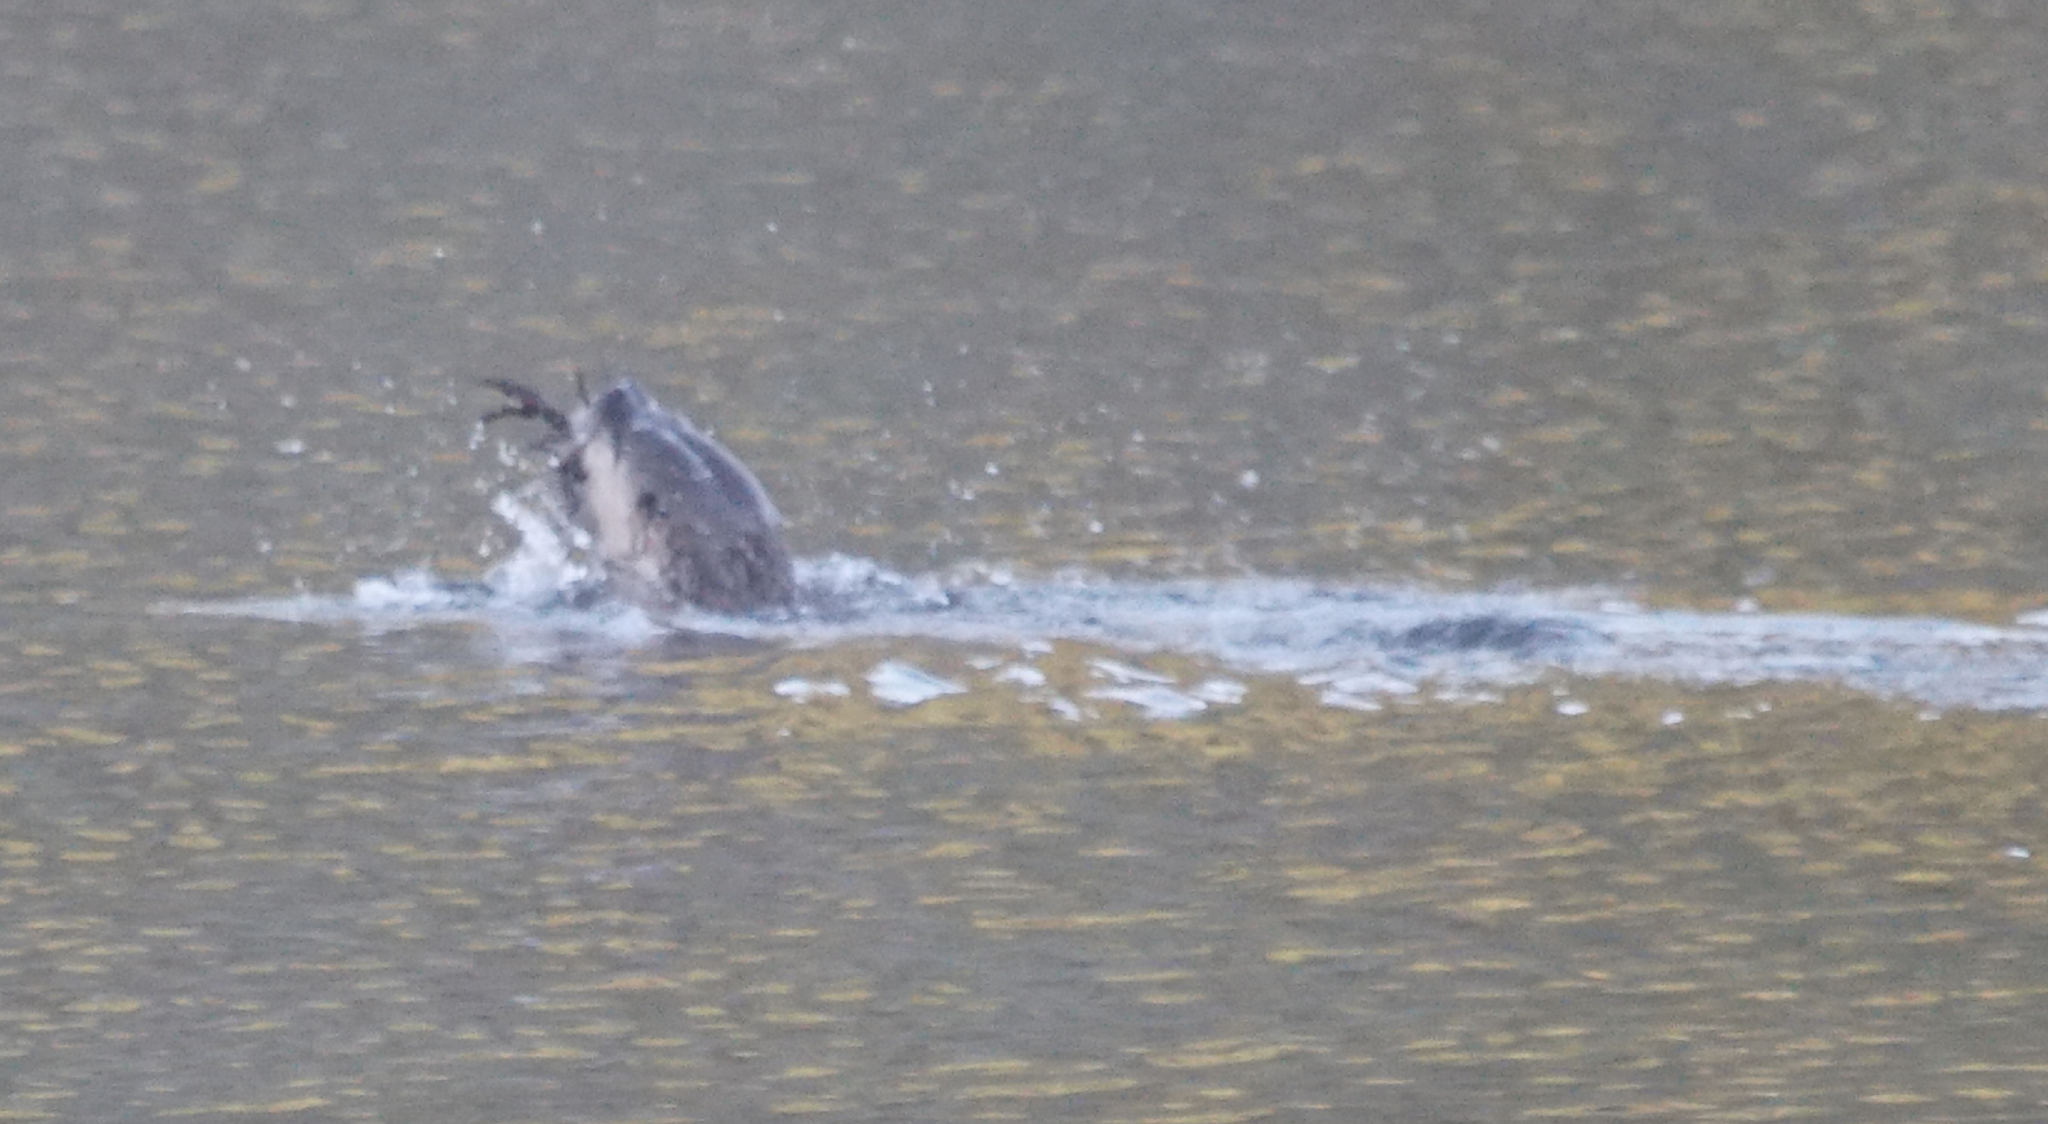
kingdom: Animalia
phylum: Chordata
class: Mammalia
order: Carnivora
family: Mustelidae
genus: Lontra
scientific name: Lontra canadensis
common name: North american river otter
